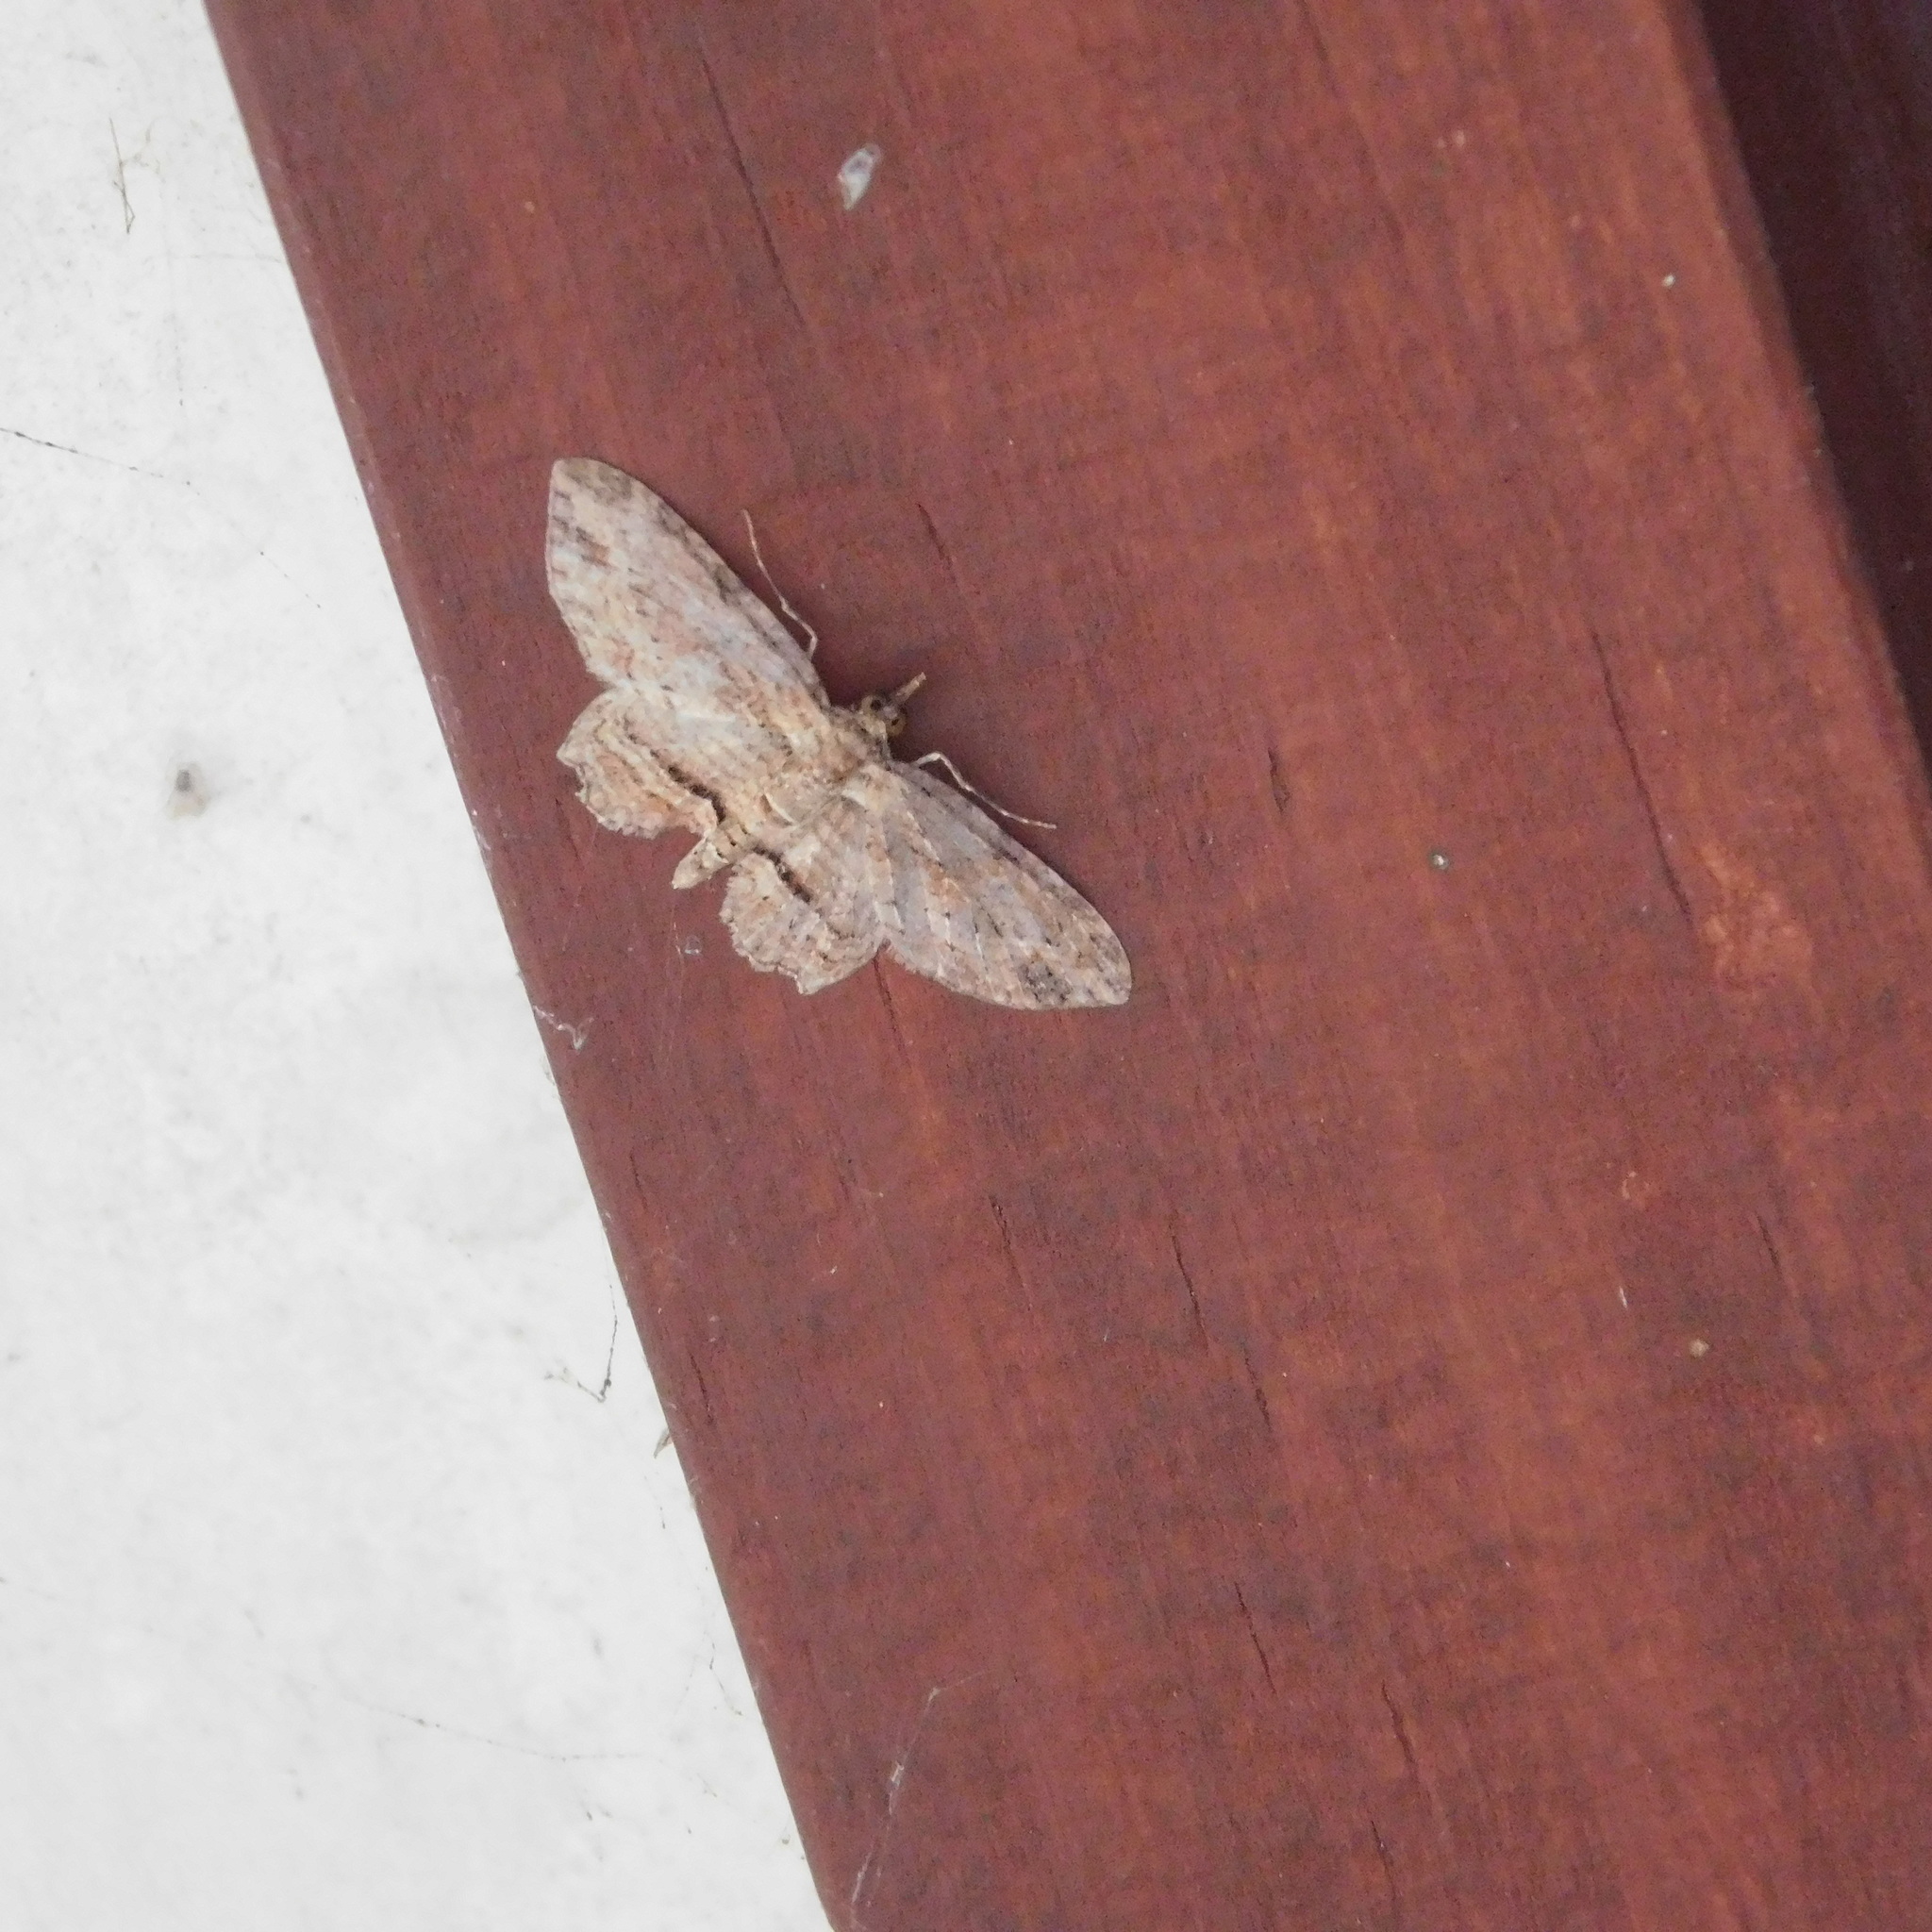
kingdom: Animalia
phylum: Arthropoda
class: Insecta
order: Lepidoptera
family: Geometridae
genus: Chloroclystis
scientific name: Chloroclystis filata
